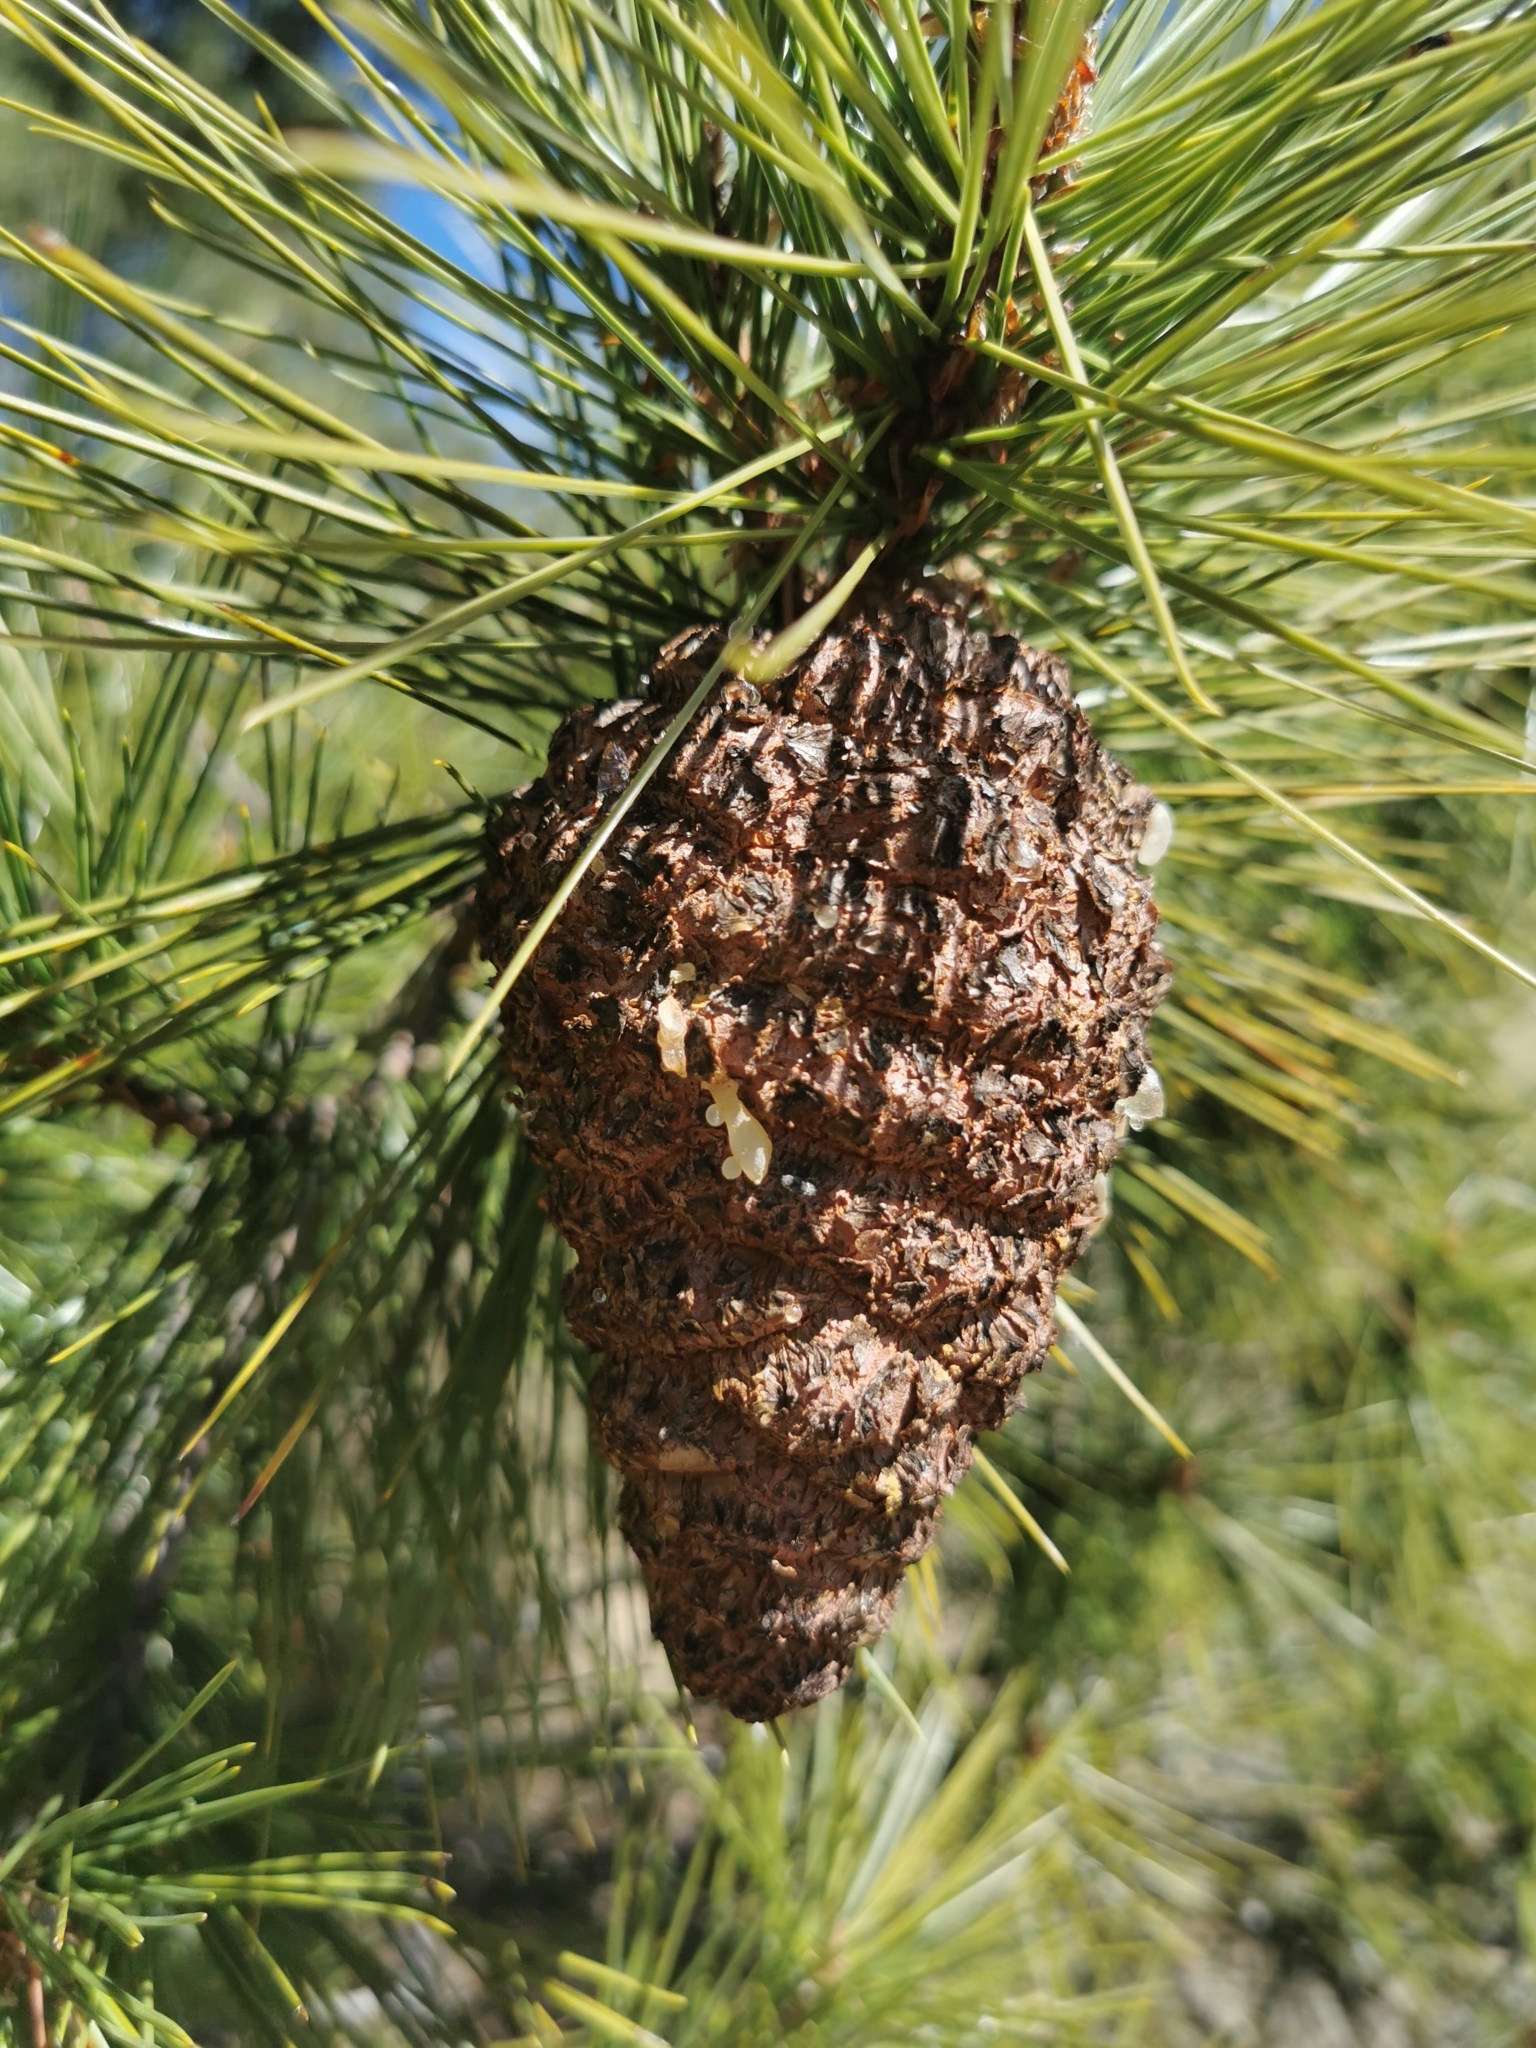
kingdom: Fungi
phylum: Basidiomycota
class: Pucciniomycetes
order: Pucciniales
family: Cronartiaceae
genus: Cronartium
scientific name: Cronartium conigenum
